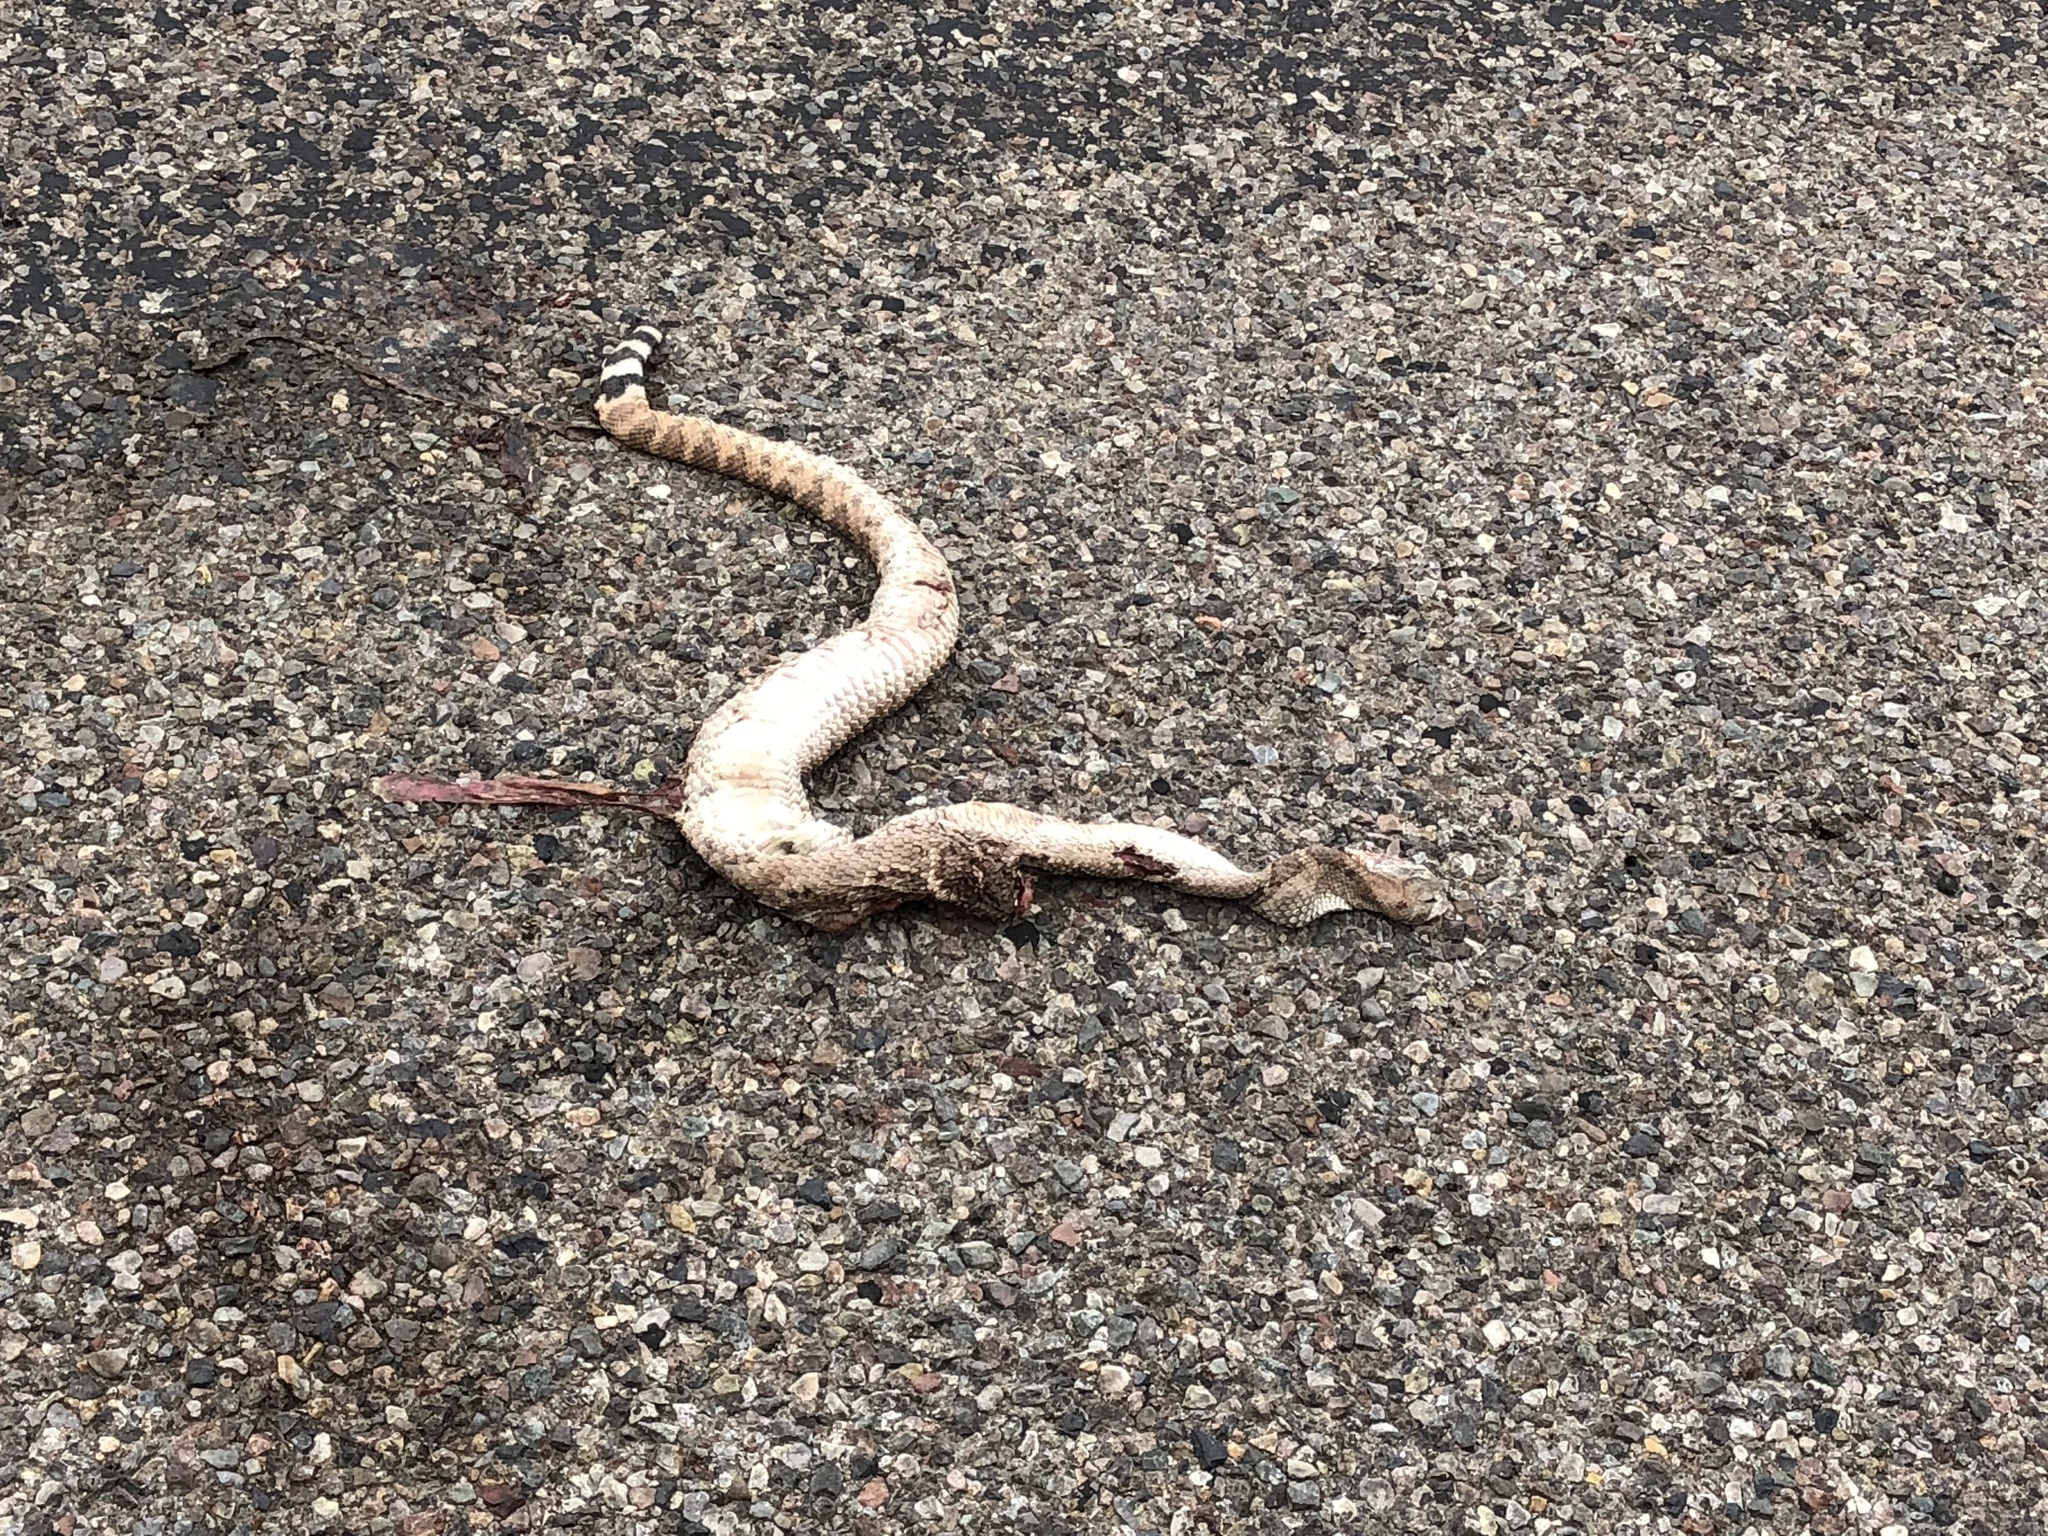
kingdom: Animalia
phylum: Chordata
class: Squamata
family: Viperidae
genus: Crotalus
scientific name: Crotalus atrox
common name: Western diamond-backed rattlesnake
